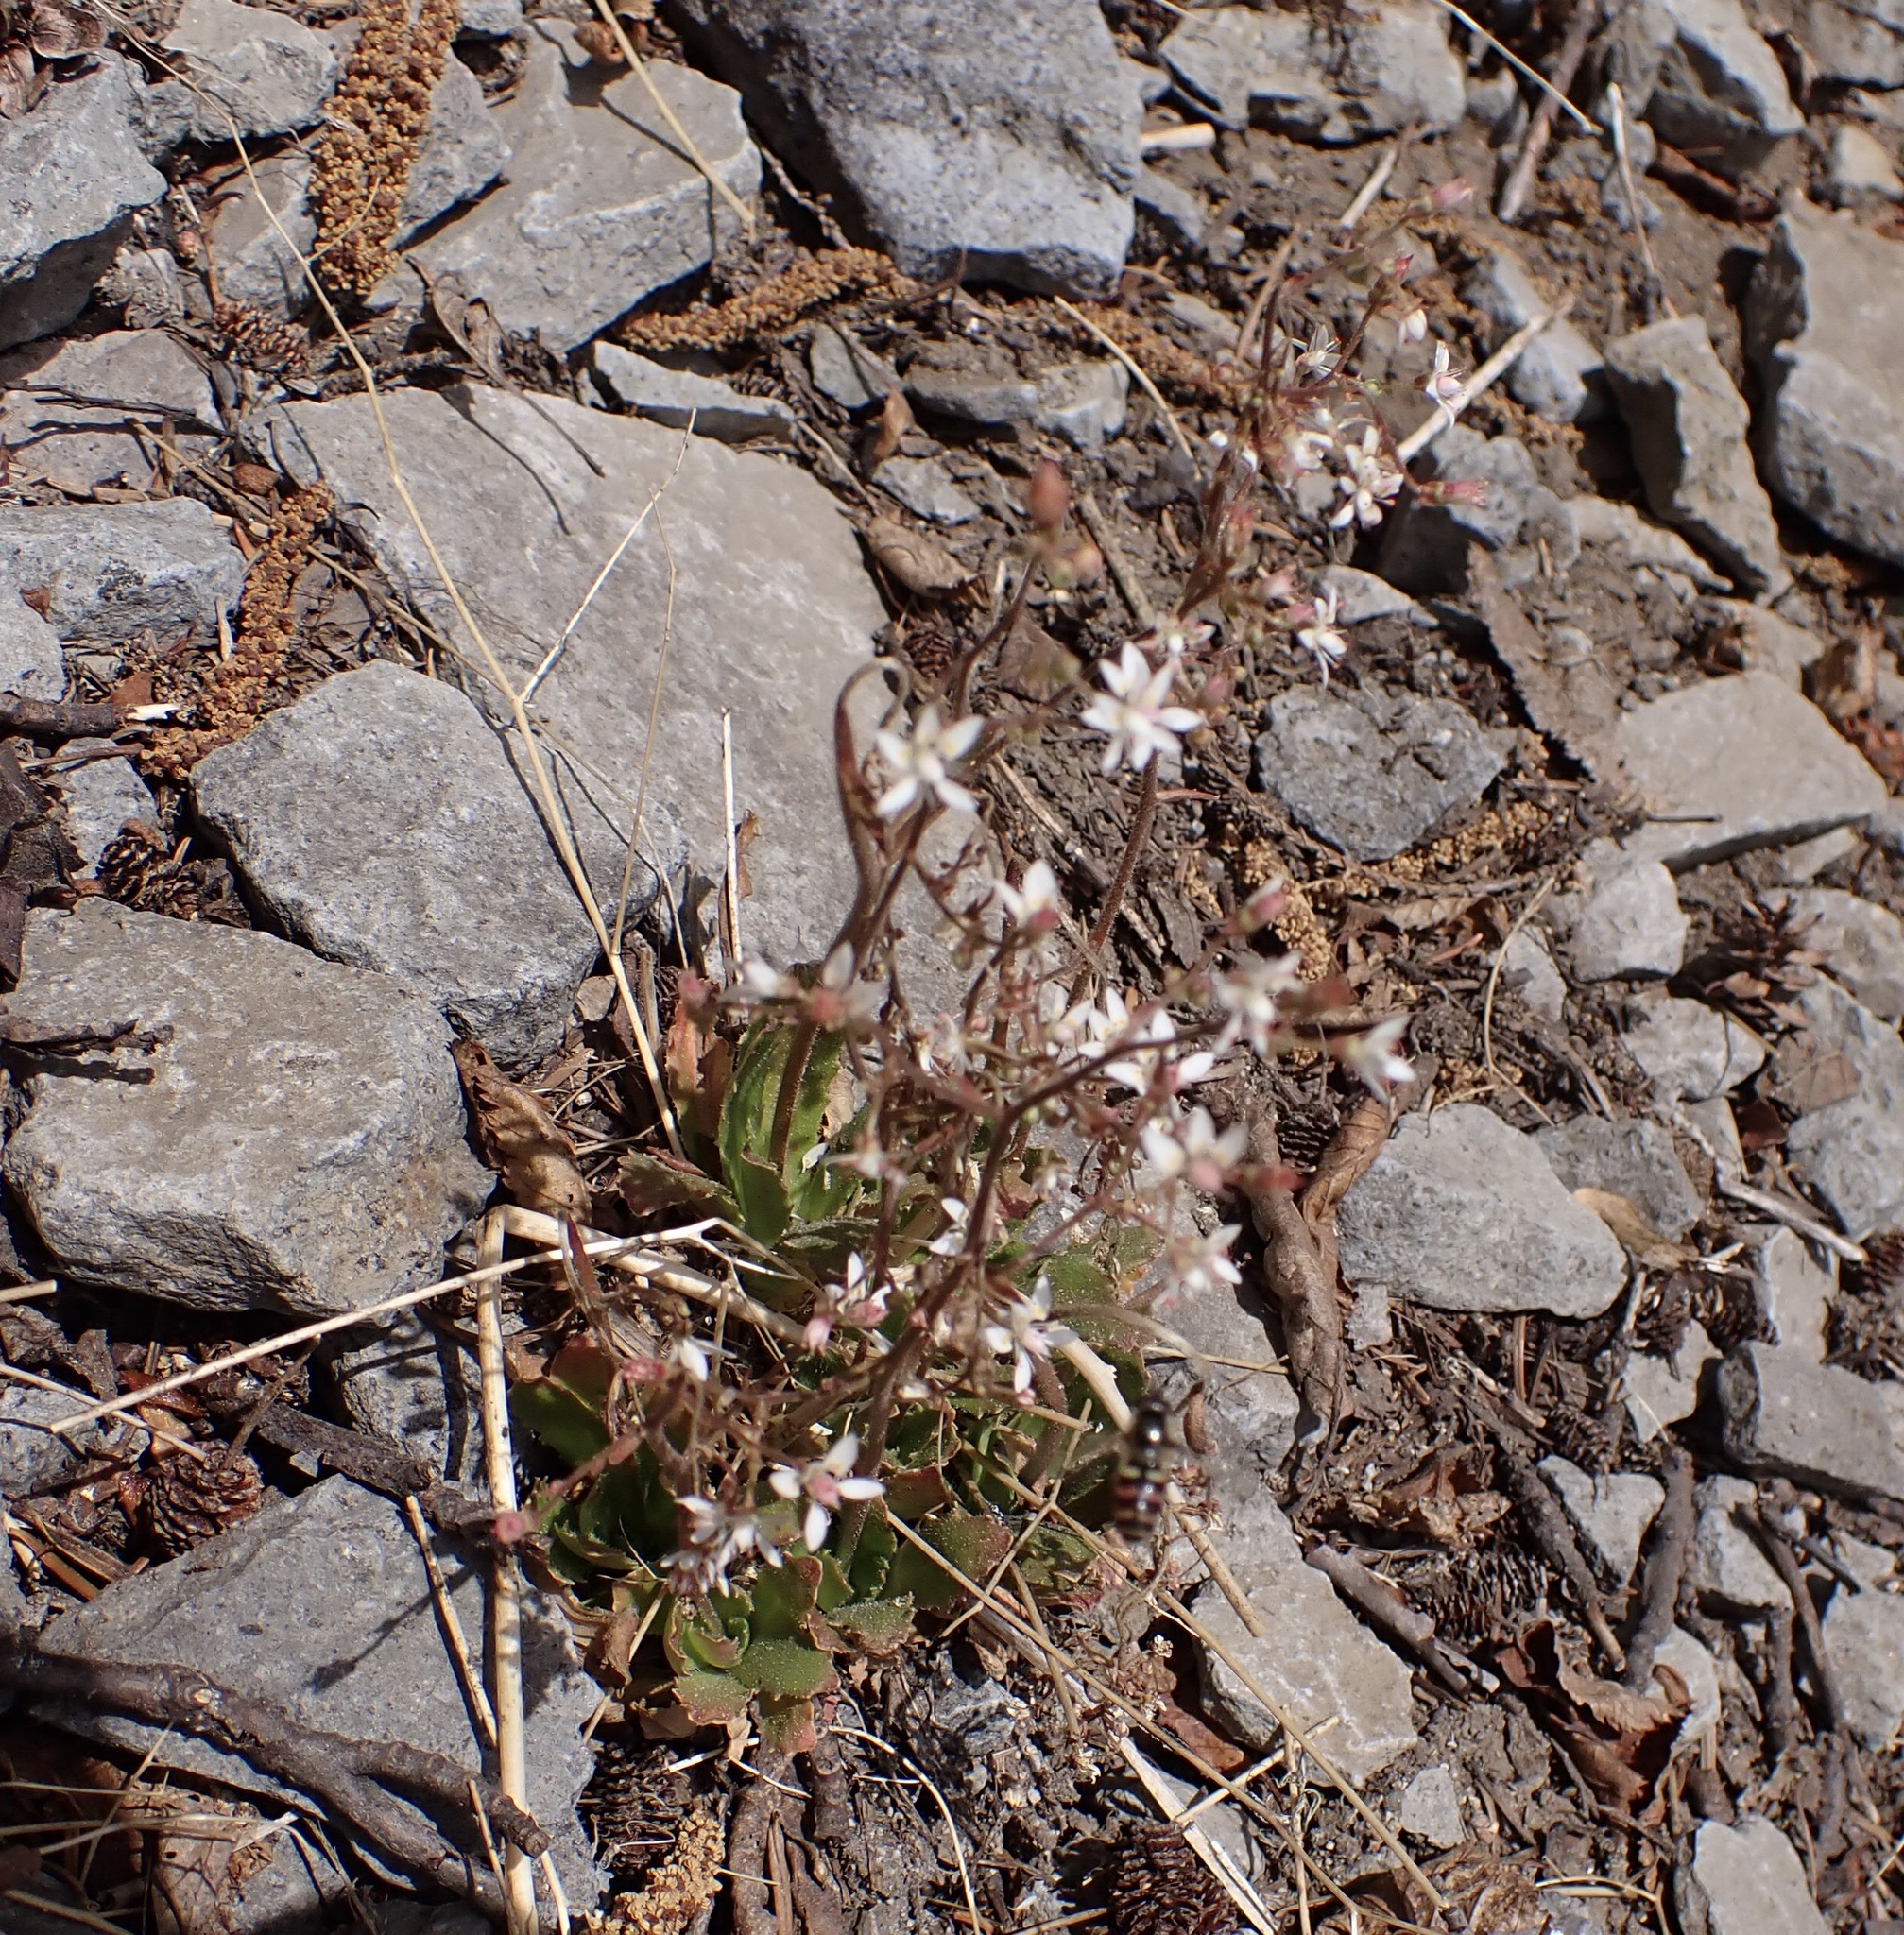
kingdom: Plantae
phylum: Tracheophyta
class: Magnoliopsida
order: Saxifragales
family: Saxifragaceae
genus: Micranthes
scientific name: Micranthes ferruginea
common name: Rusty saxifrage
